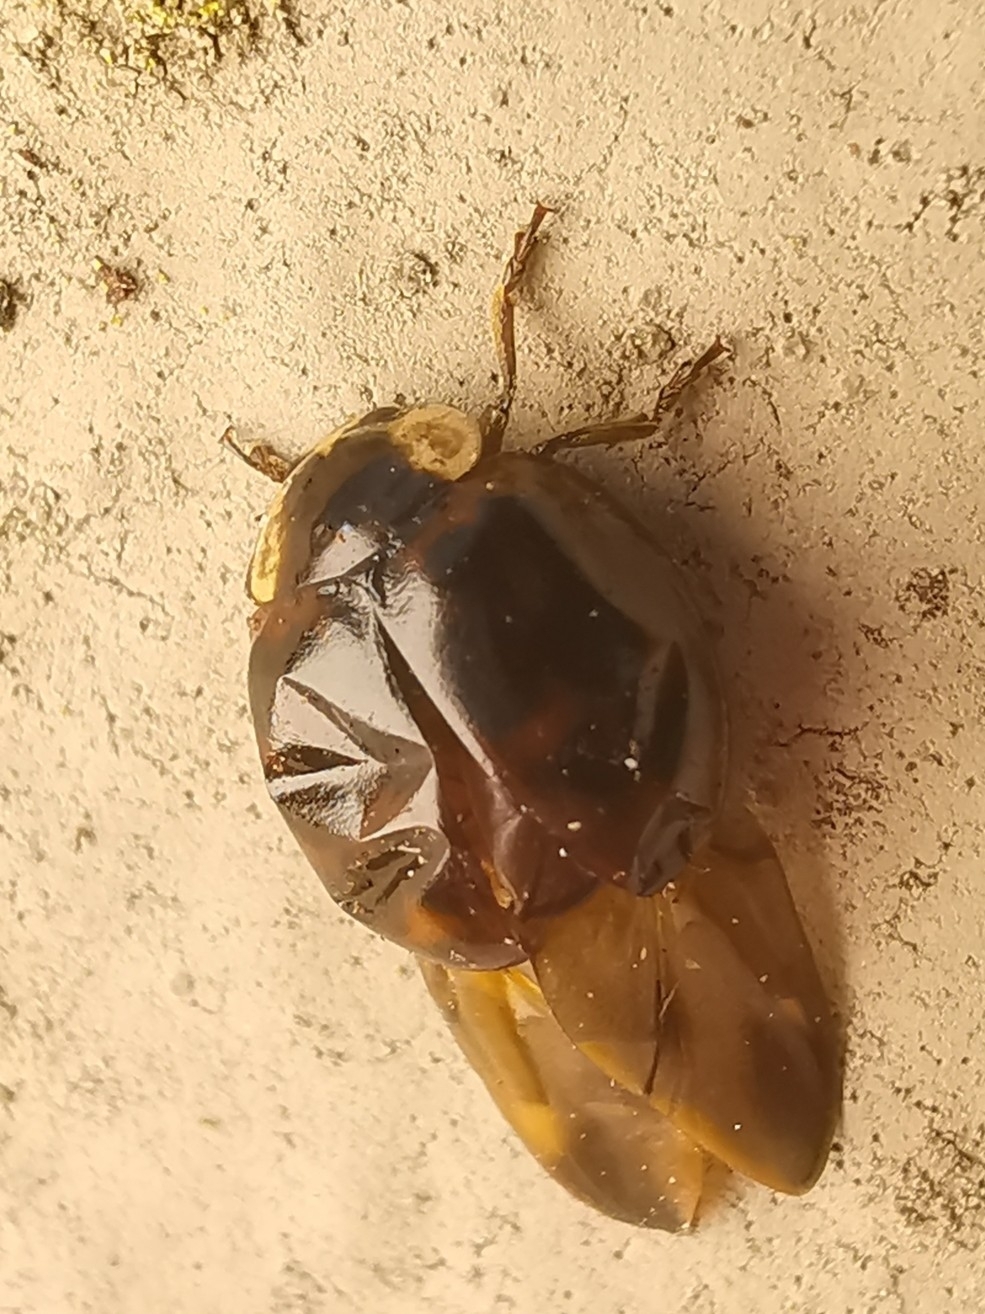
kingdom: Animalia
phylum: Arthropoda
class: Insecta
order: Coleoptera
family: Coccinellidae
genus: Harmonia
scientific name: Harmonia axyridis
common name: Harlequin ladybird
